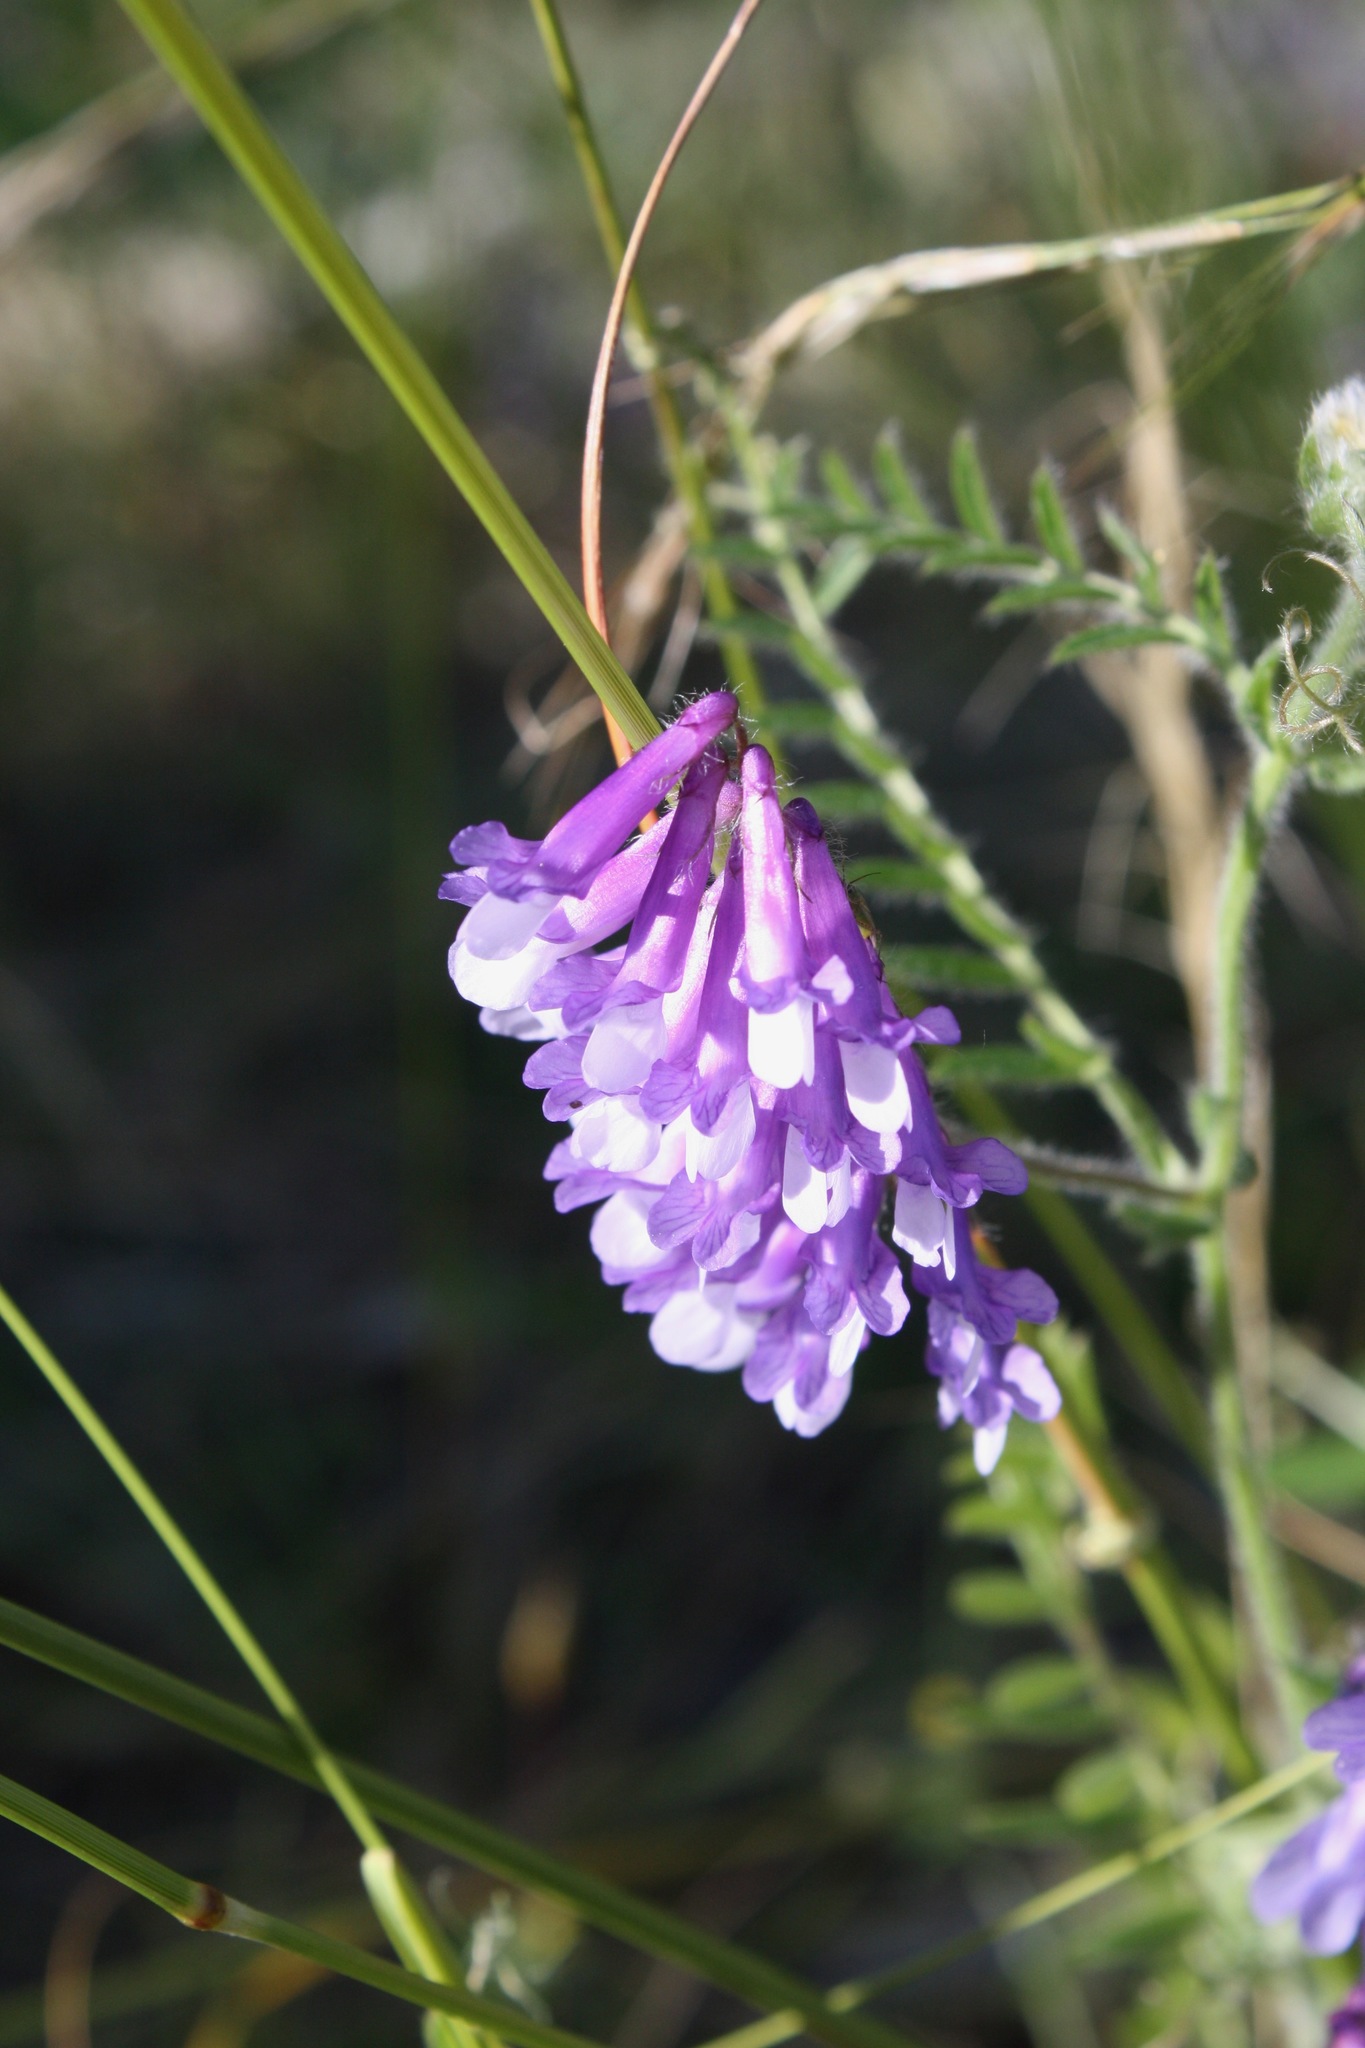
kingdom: Plantae
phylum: Tracheophyta
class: Magnoliopsida
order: Fabales
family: Fabaceae
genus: Vicia
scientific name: Vicia villosa
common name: Fodder vetch
